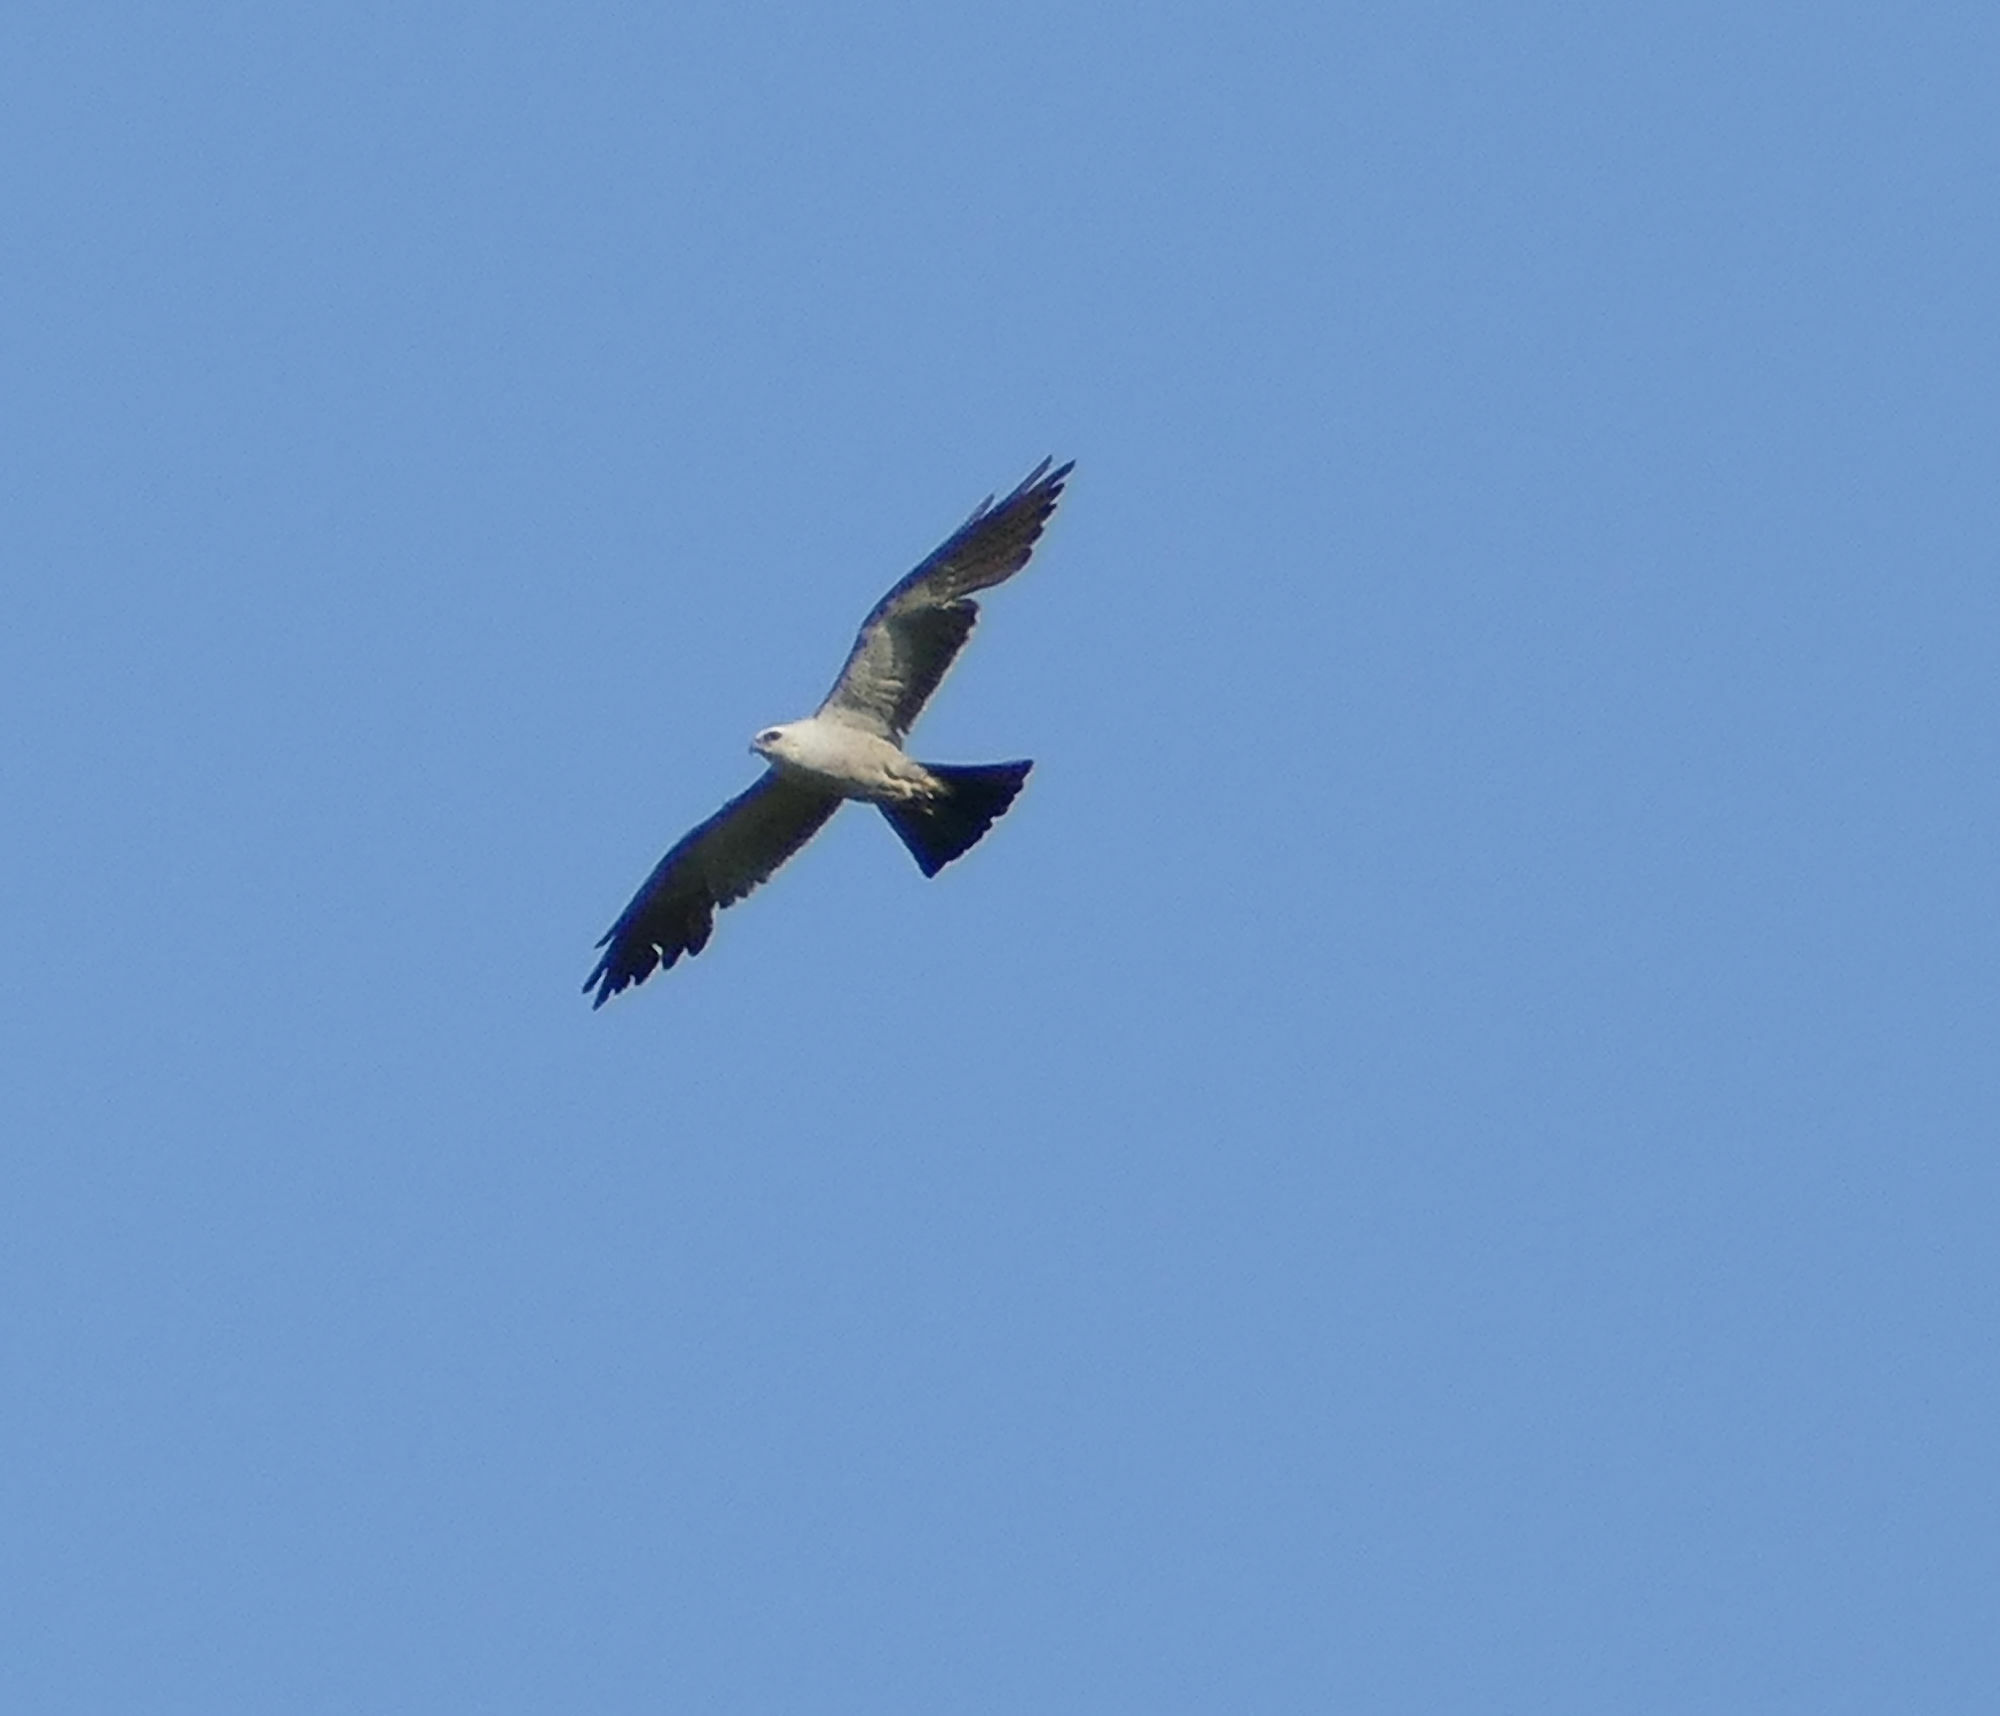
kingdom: Animalia
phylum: Chordata
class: Aves
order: Accipitriformes
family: Accipitridae
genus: Ictinia
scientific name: Ictinia mississippiensis
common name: Mississippi kite
